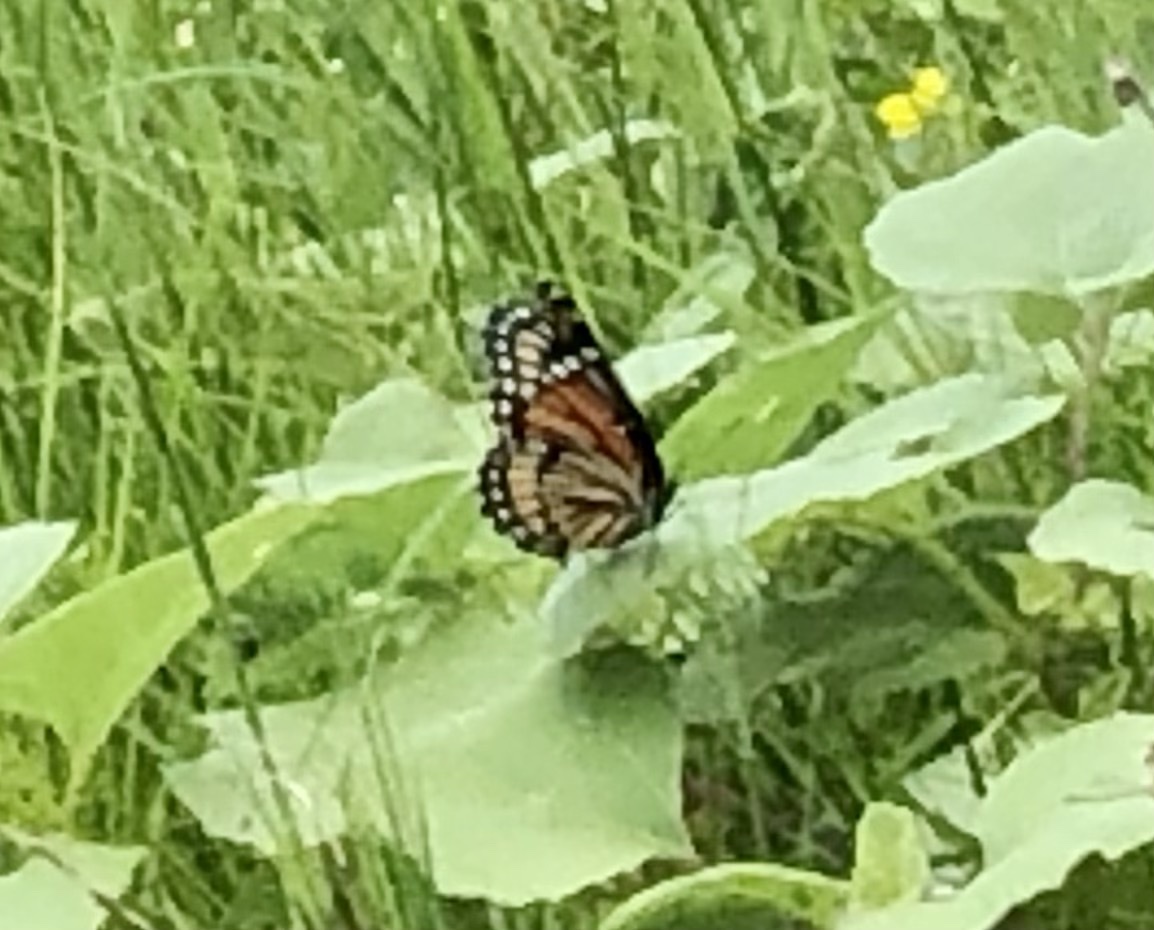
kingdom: Animalia
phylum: Arthropoda
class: Insecta
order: Lepidoptera
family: Nymphalidae
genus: Limenitis
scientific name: Limenitis archippus
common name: Viceroy
